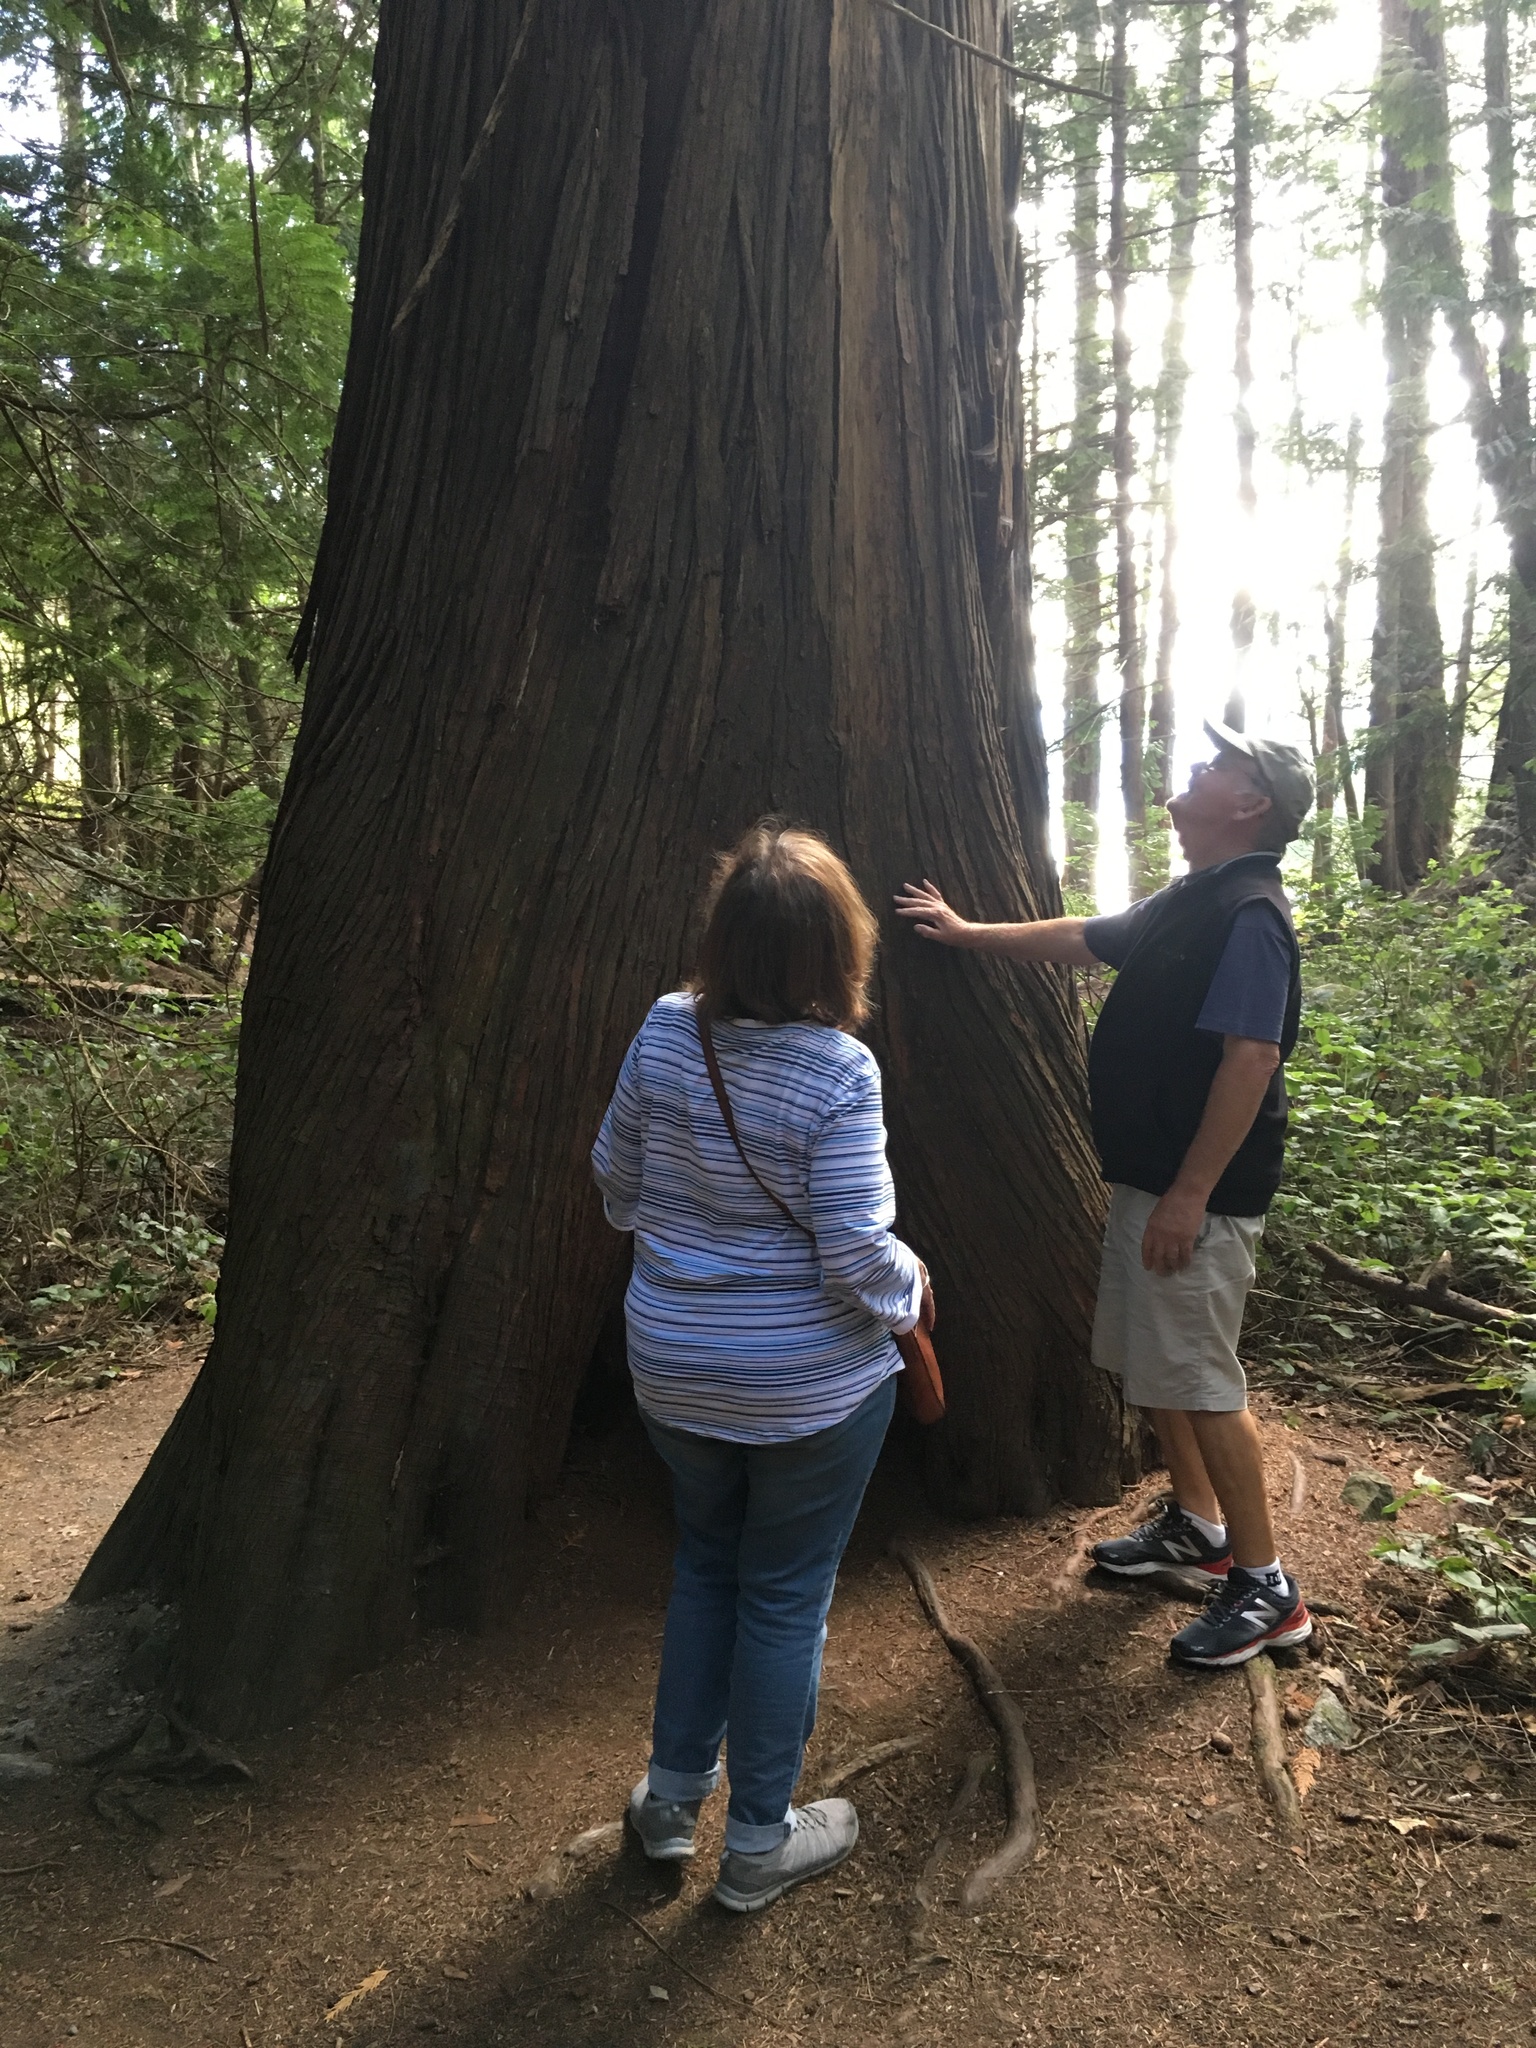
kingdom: Plantae
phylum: Tracheophyta
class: Pinopsida
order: Pinales
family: Cupressaceae
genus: Thuja
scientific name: Thuja plicata
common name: Western red-cedar
